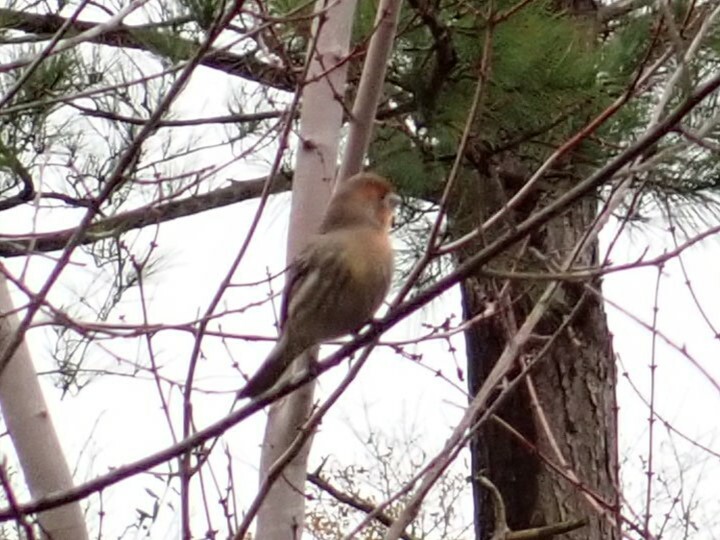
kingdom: Animalia
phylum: Chordata
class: Aves
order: Passeriformes
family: Fringillidae
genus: Haemorhous
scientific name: Haemorhous mexicanus
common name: House finch
